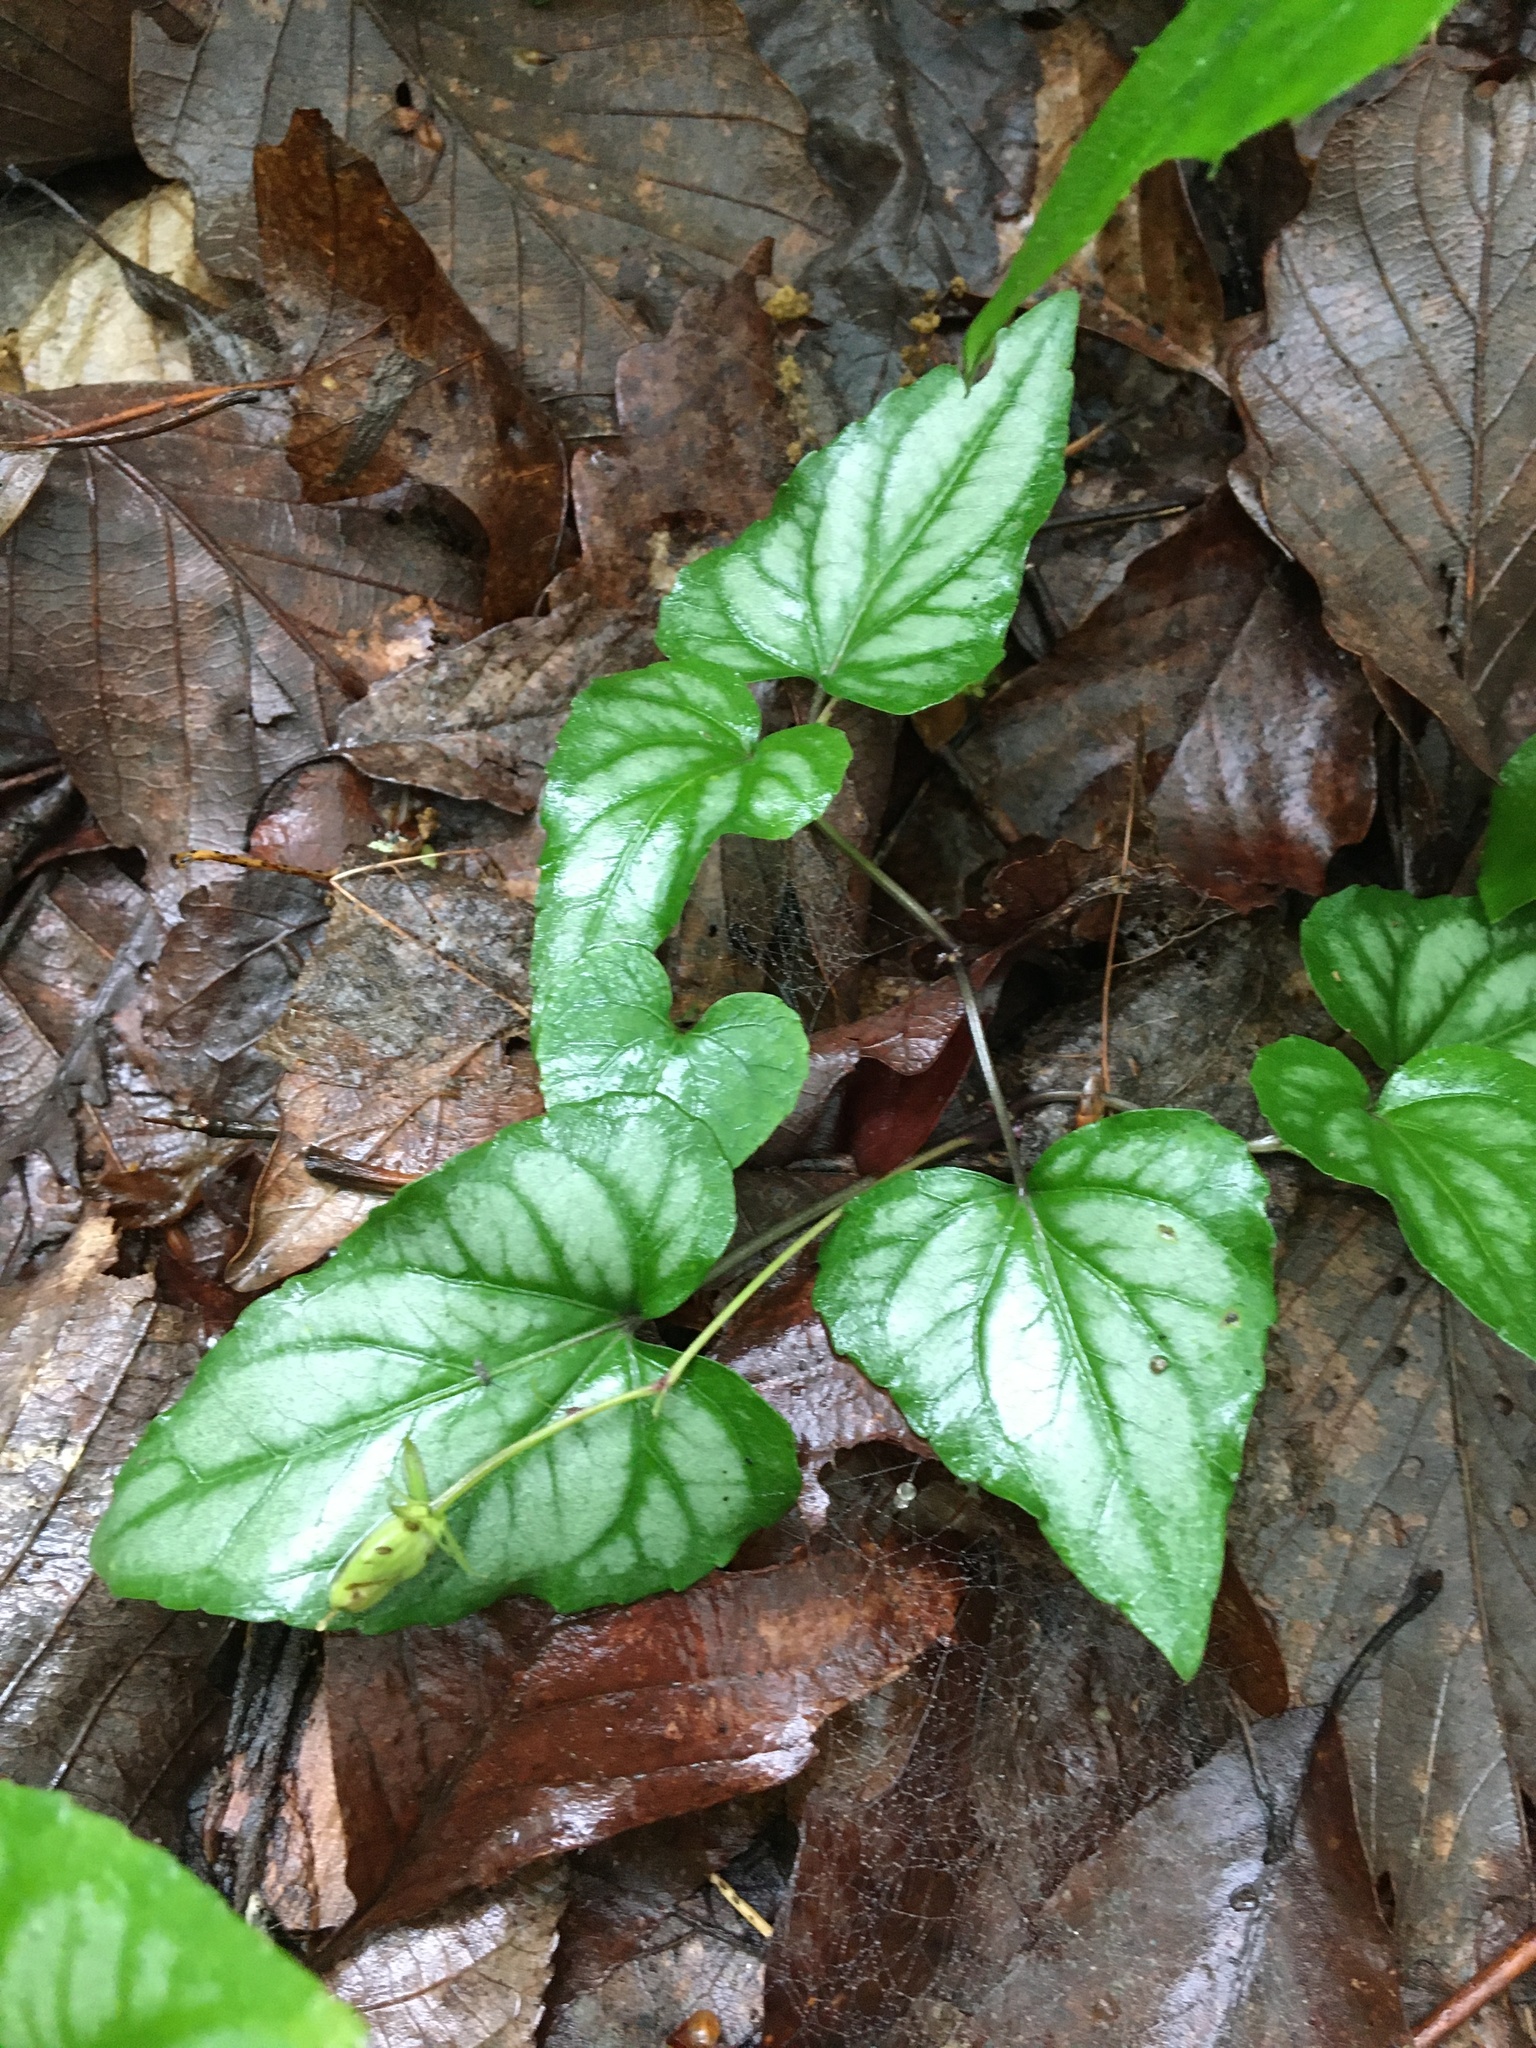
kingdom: Plantae
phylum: Tracheophyta
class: Magnoliopsida
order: Malpighiales
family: Violaceae
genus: Viola
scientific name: Viola hastata
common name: Spear-leaf violet
